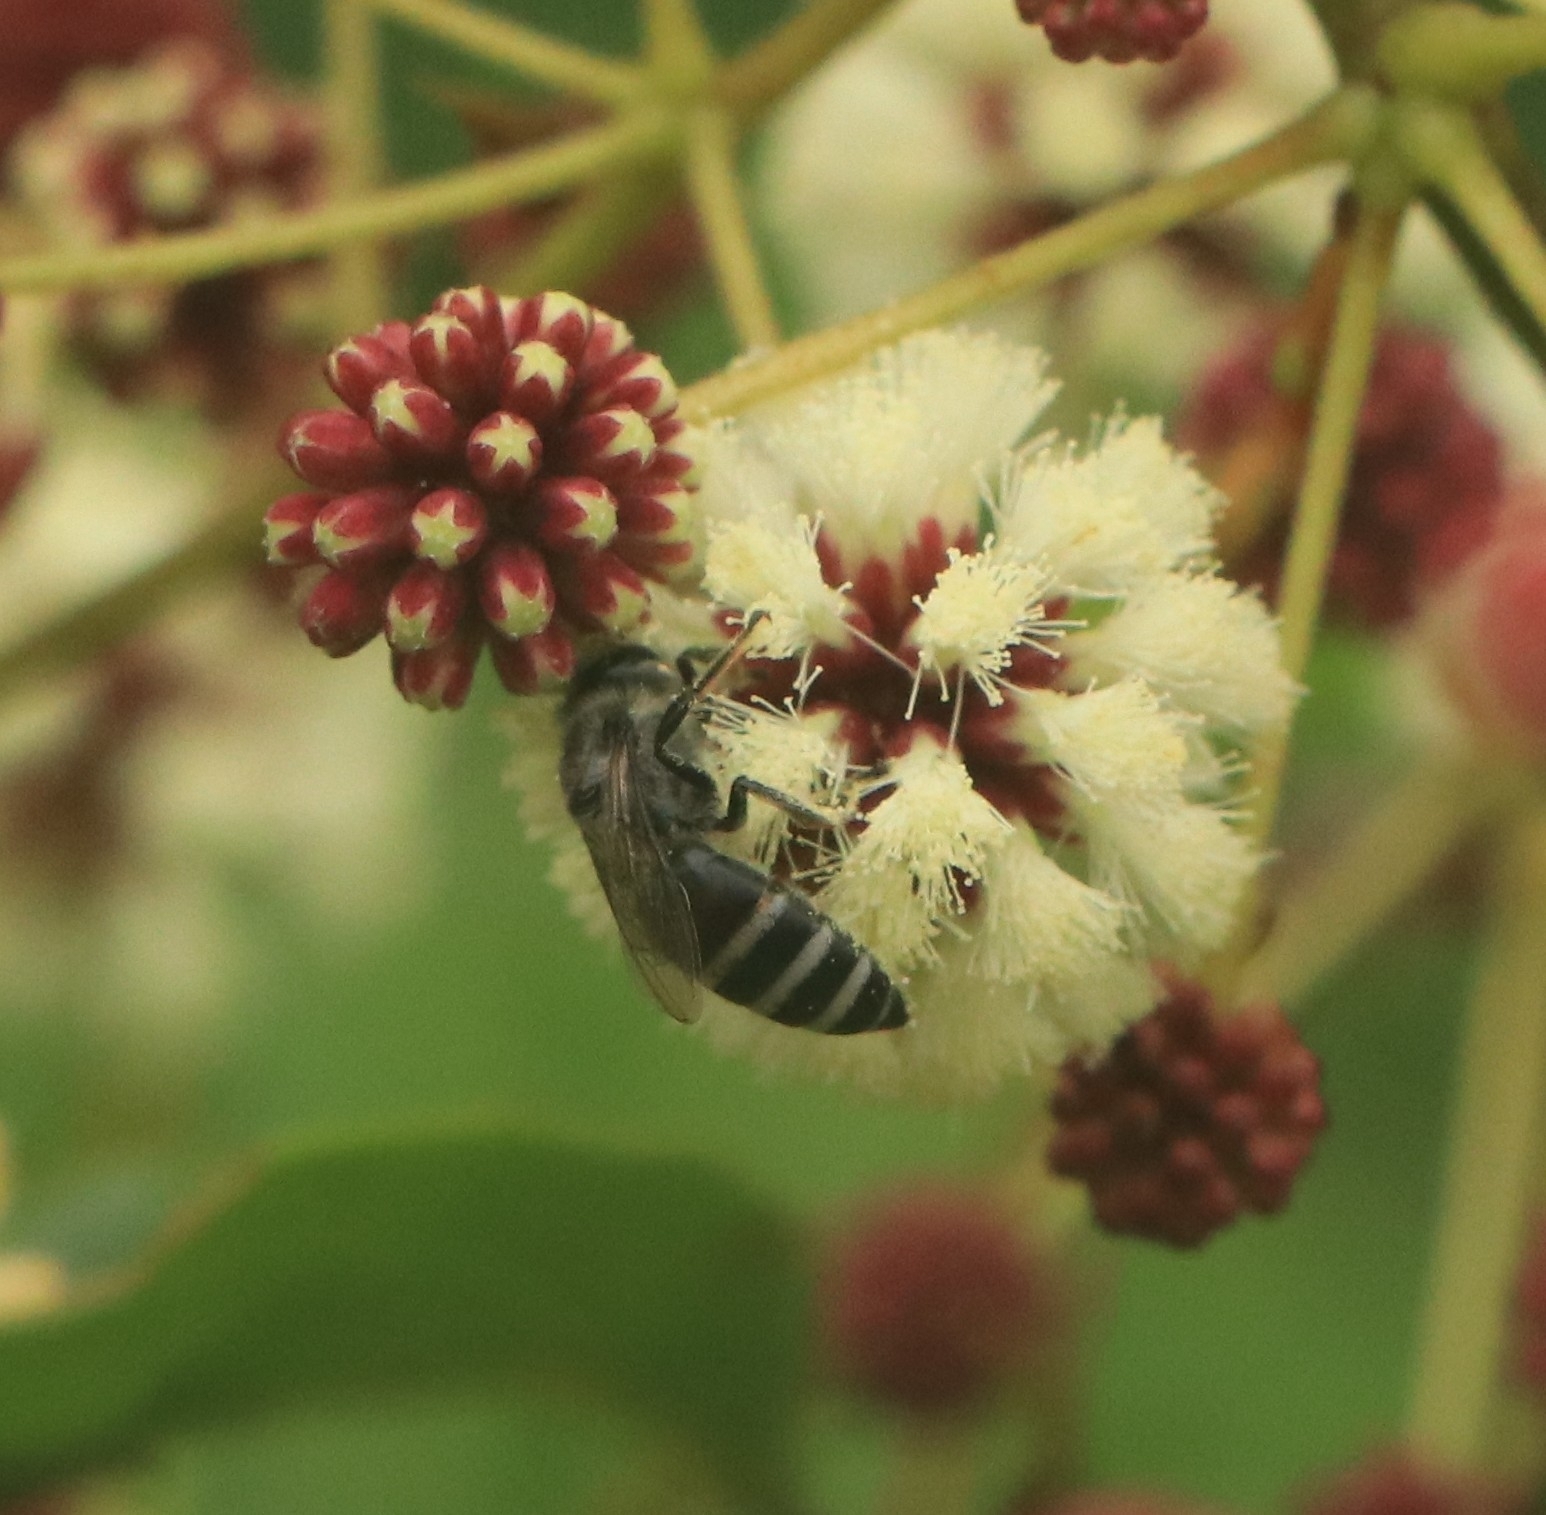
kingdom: Animalia
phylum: Arthropoda
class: Insecta
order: Hymenoptera
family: Apidae
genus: Apis
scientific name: Apis florea
